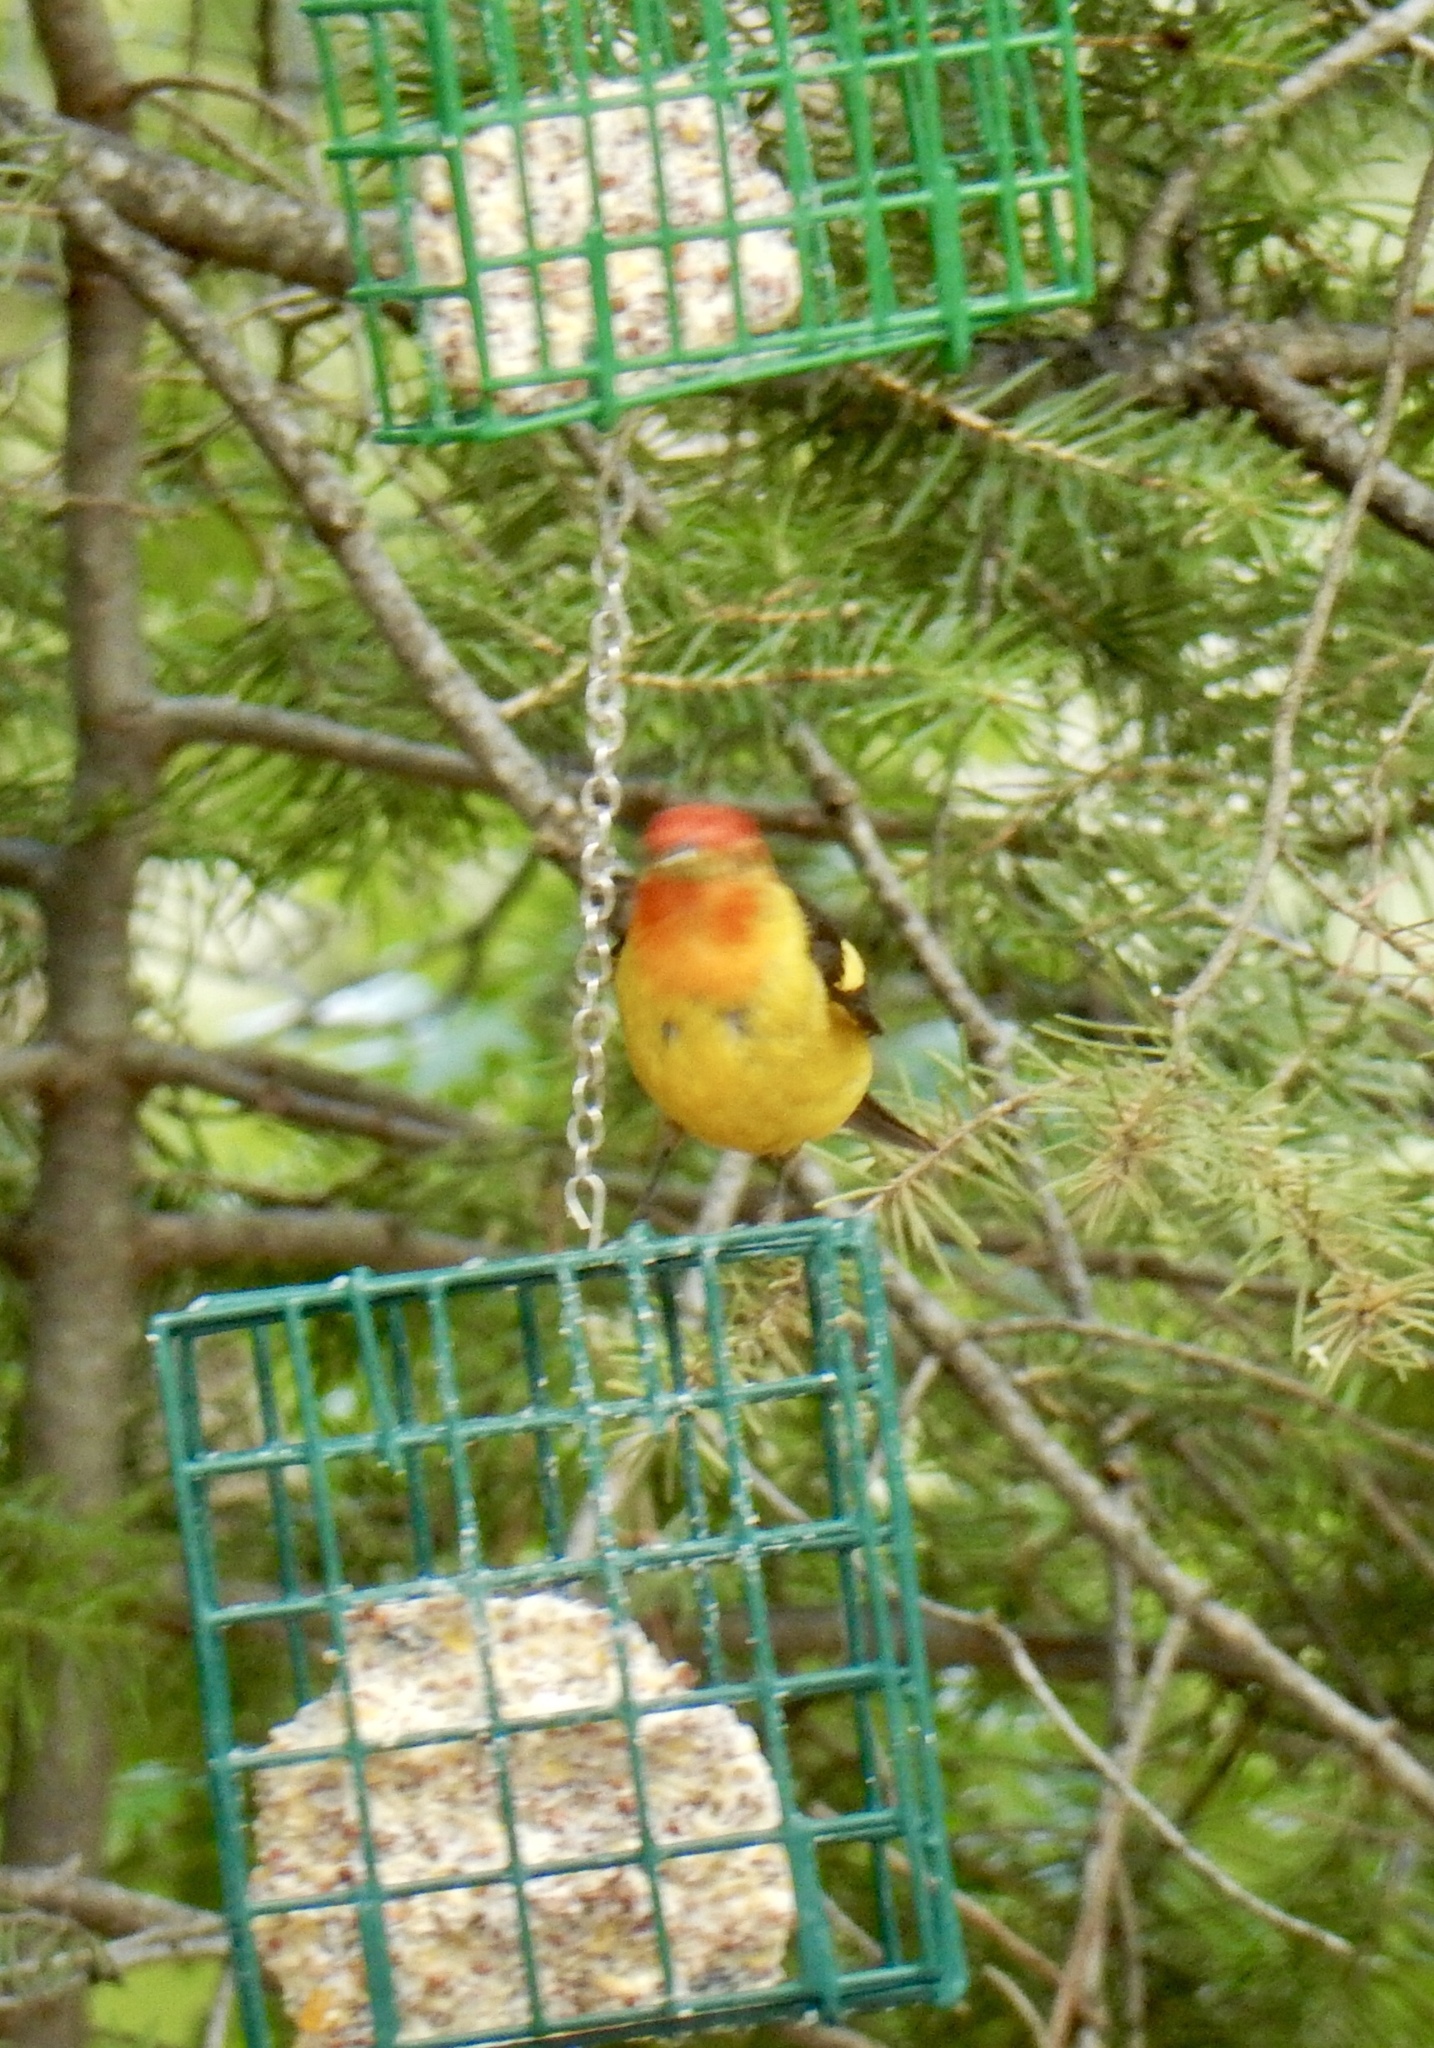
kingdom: Animalia
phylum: Chordata
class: Aves
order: Passeriformes
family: Cardinalidae
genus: Piranga
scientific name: Piranga ludoviciana
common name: Western tanager
